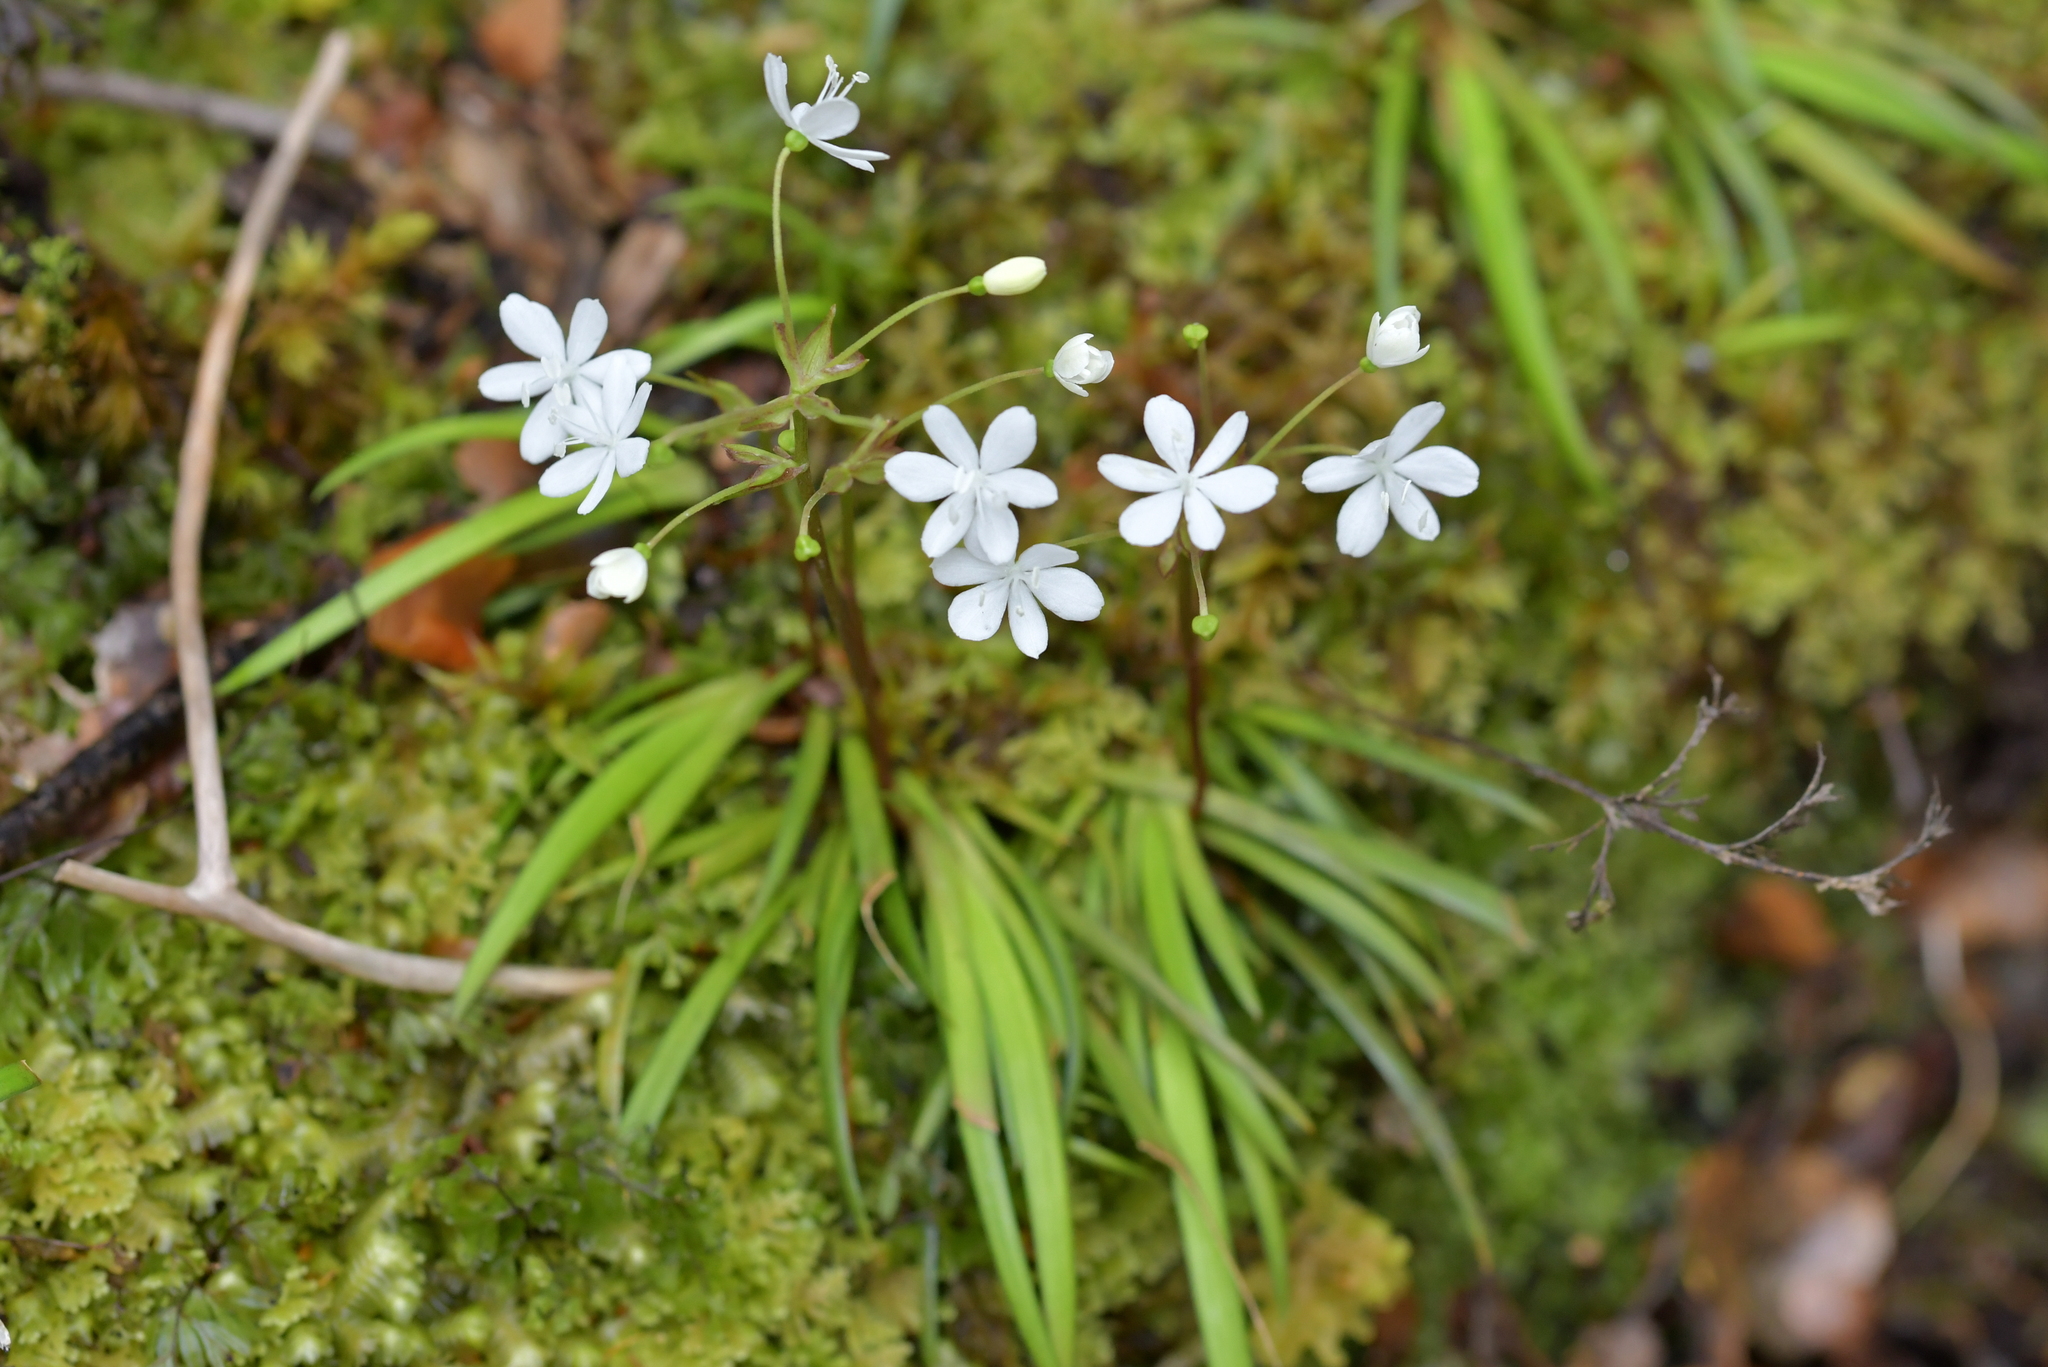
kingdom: Plantae
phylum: Tracheophyta
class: Liliopsida
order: Asparagales
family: Iridaceae
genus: Libertia
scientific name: Libertia micrantha
